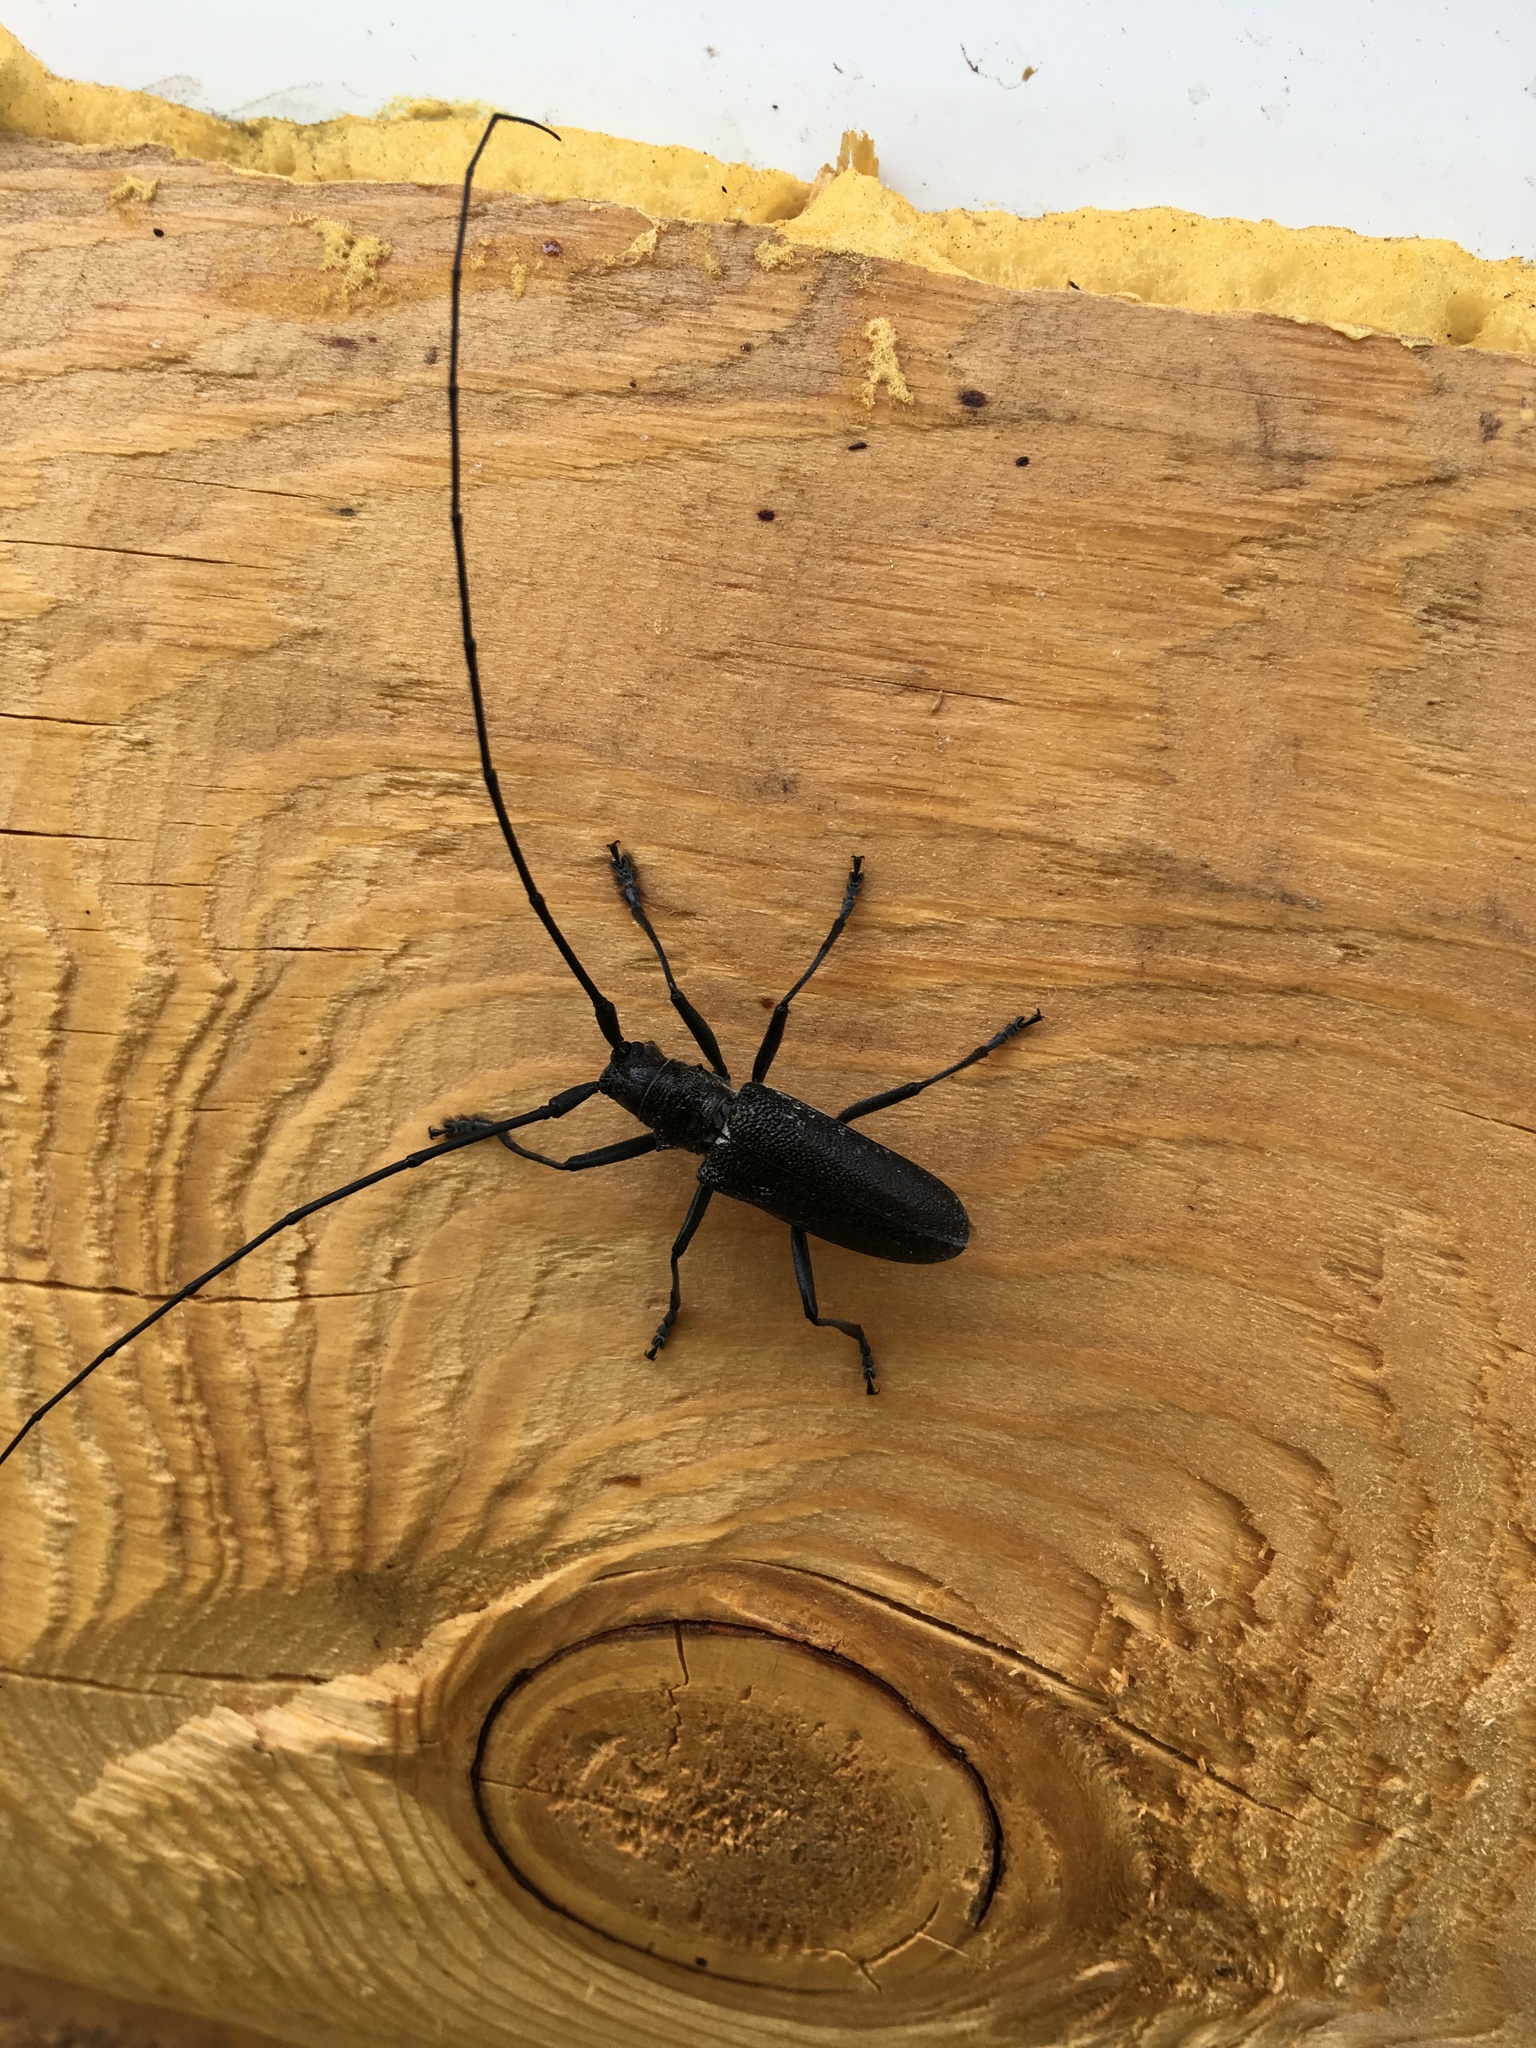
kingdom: Animalia
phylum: Arthropoda
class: Insecta
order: Coleoptera
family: Cerambycidae
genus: Monochamus
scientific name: Monochamus sutor
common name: Pine sawyer
